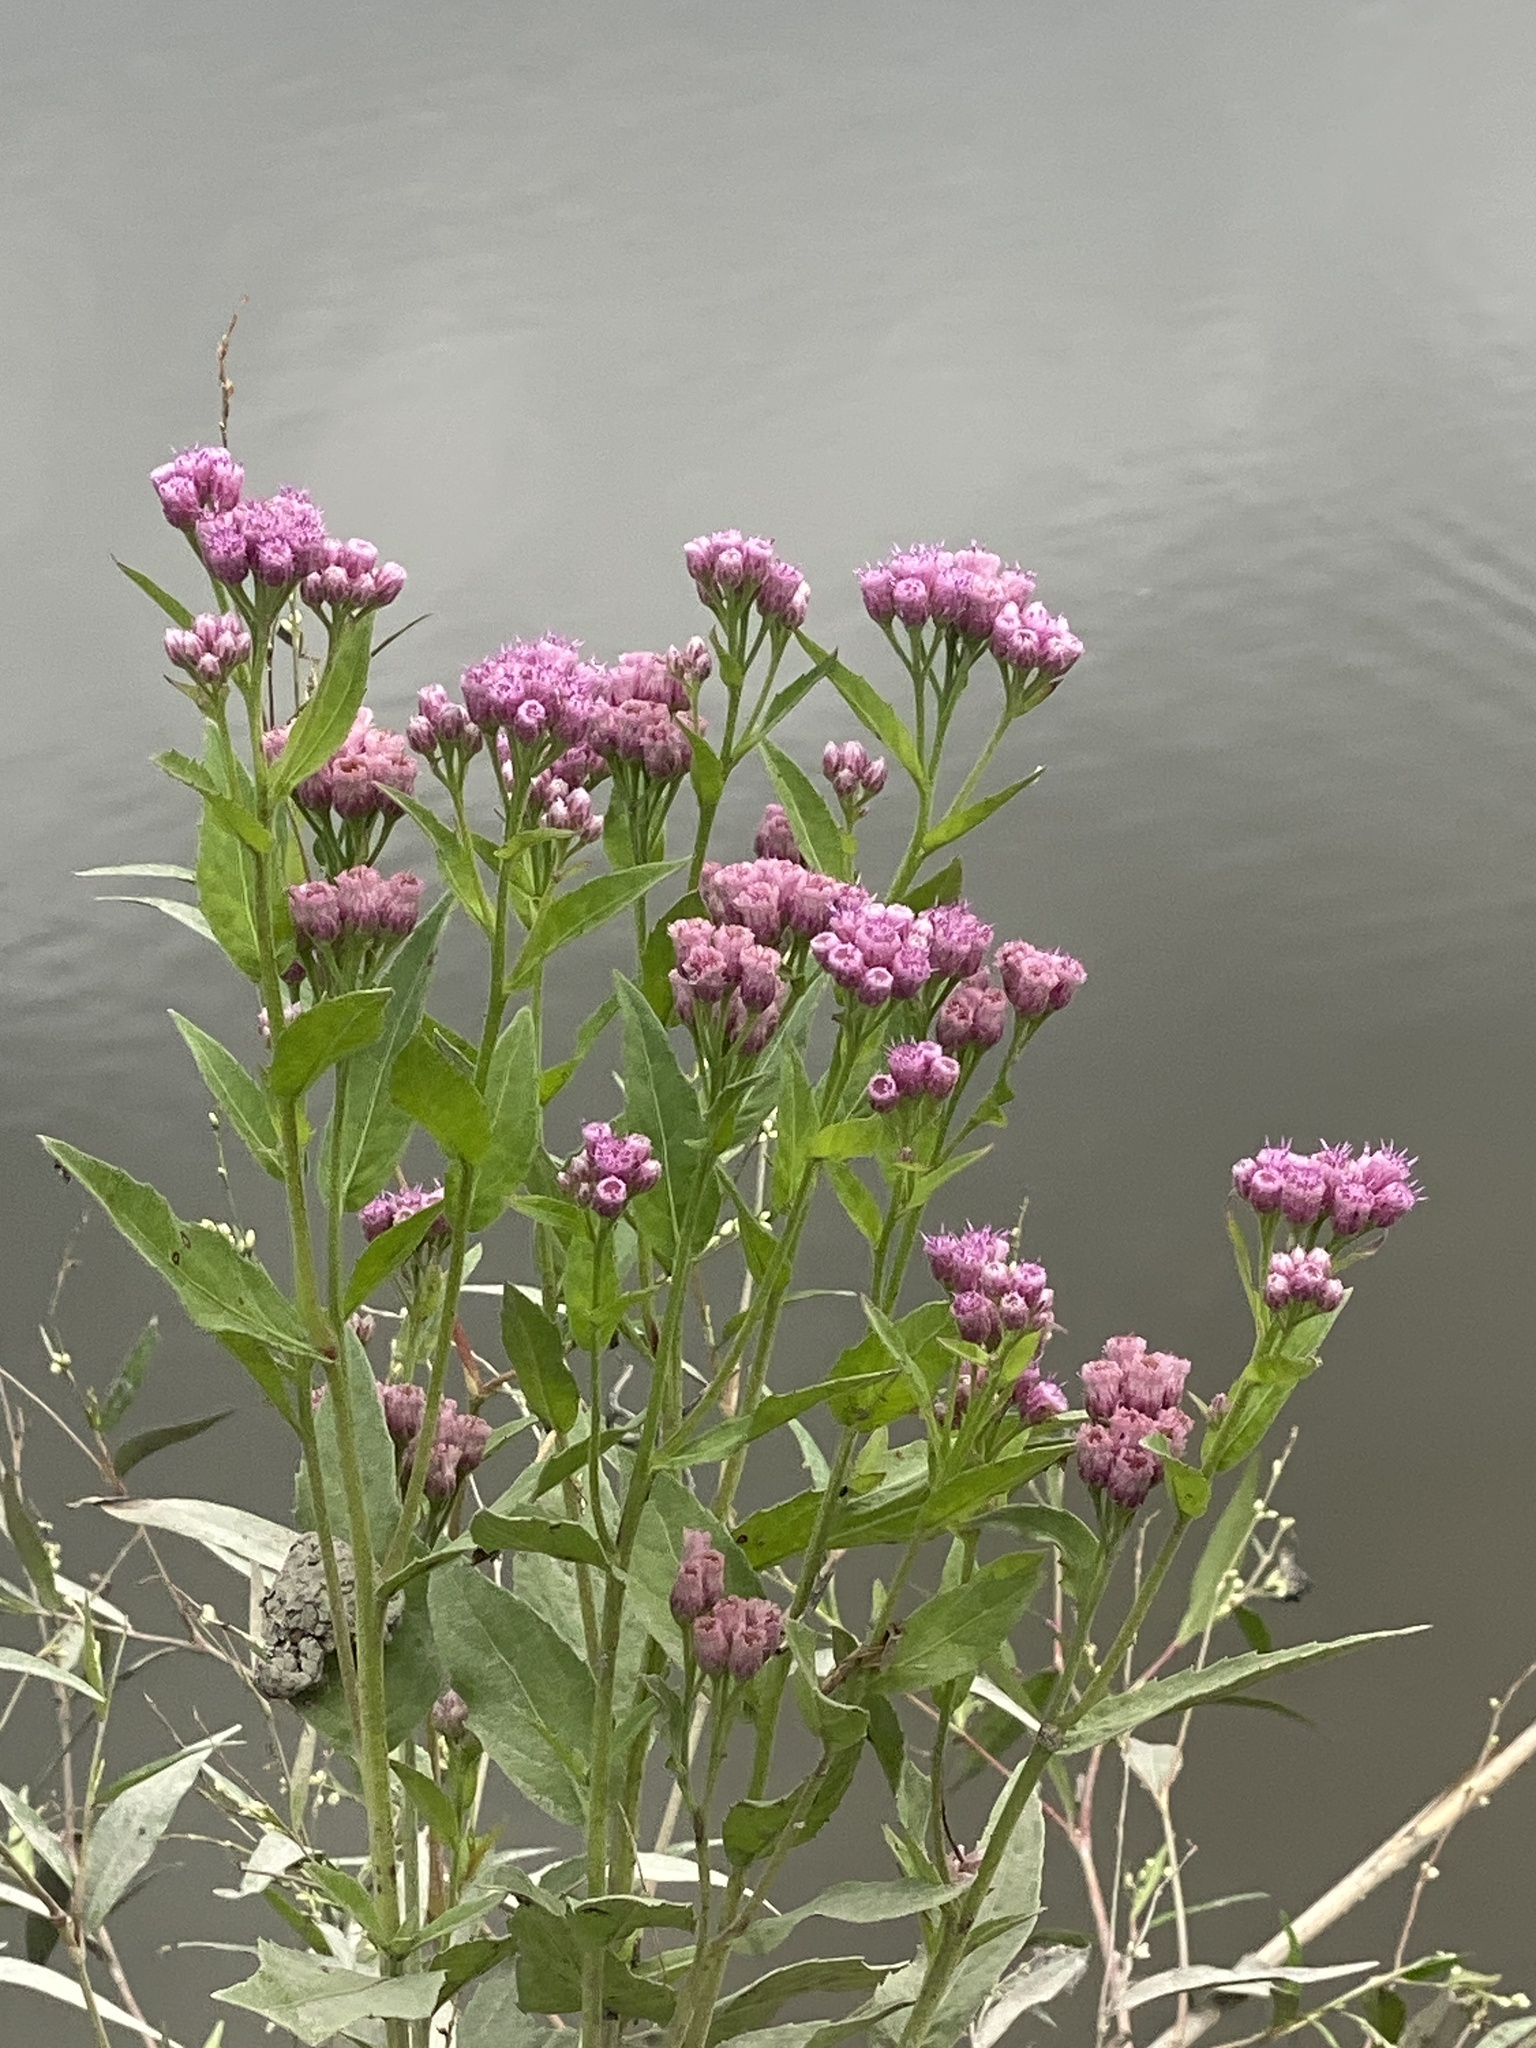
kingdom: Plantae
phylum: Tracheophyta
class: Magnoliopsida
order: Asterales
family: Asteraceae
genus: Pluchea
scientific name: Pluchea odorata
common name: Saltmarsh fleabane
